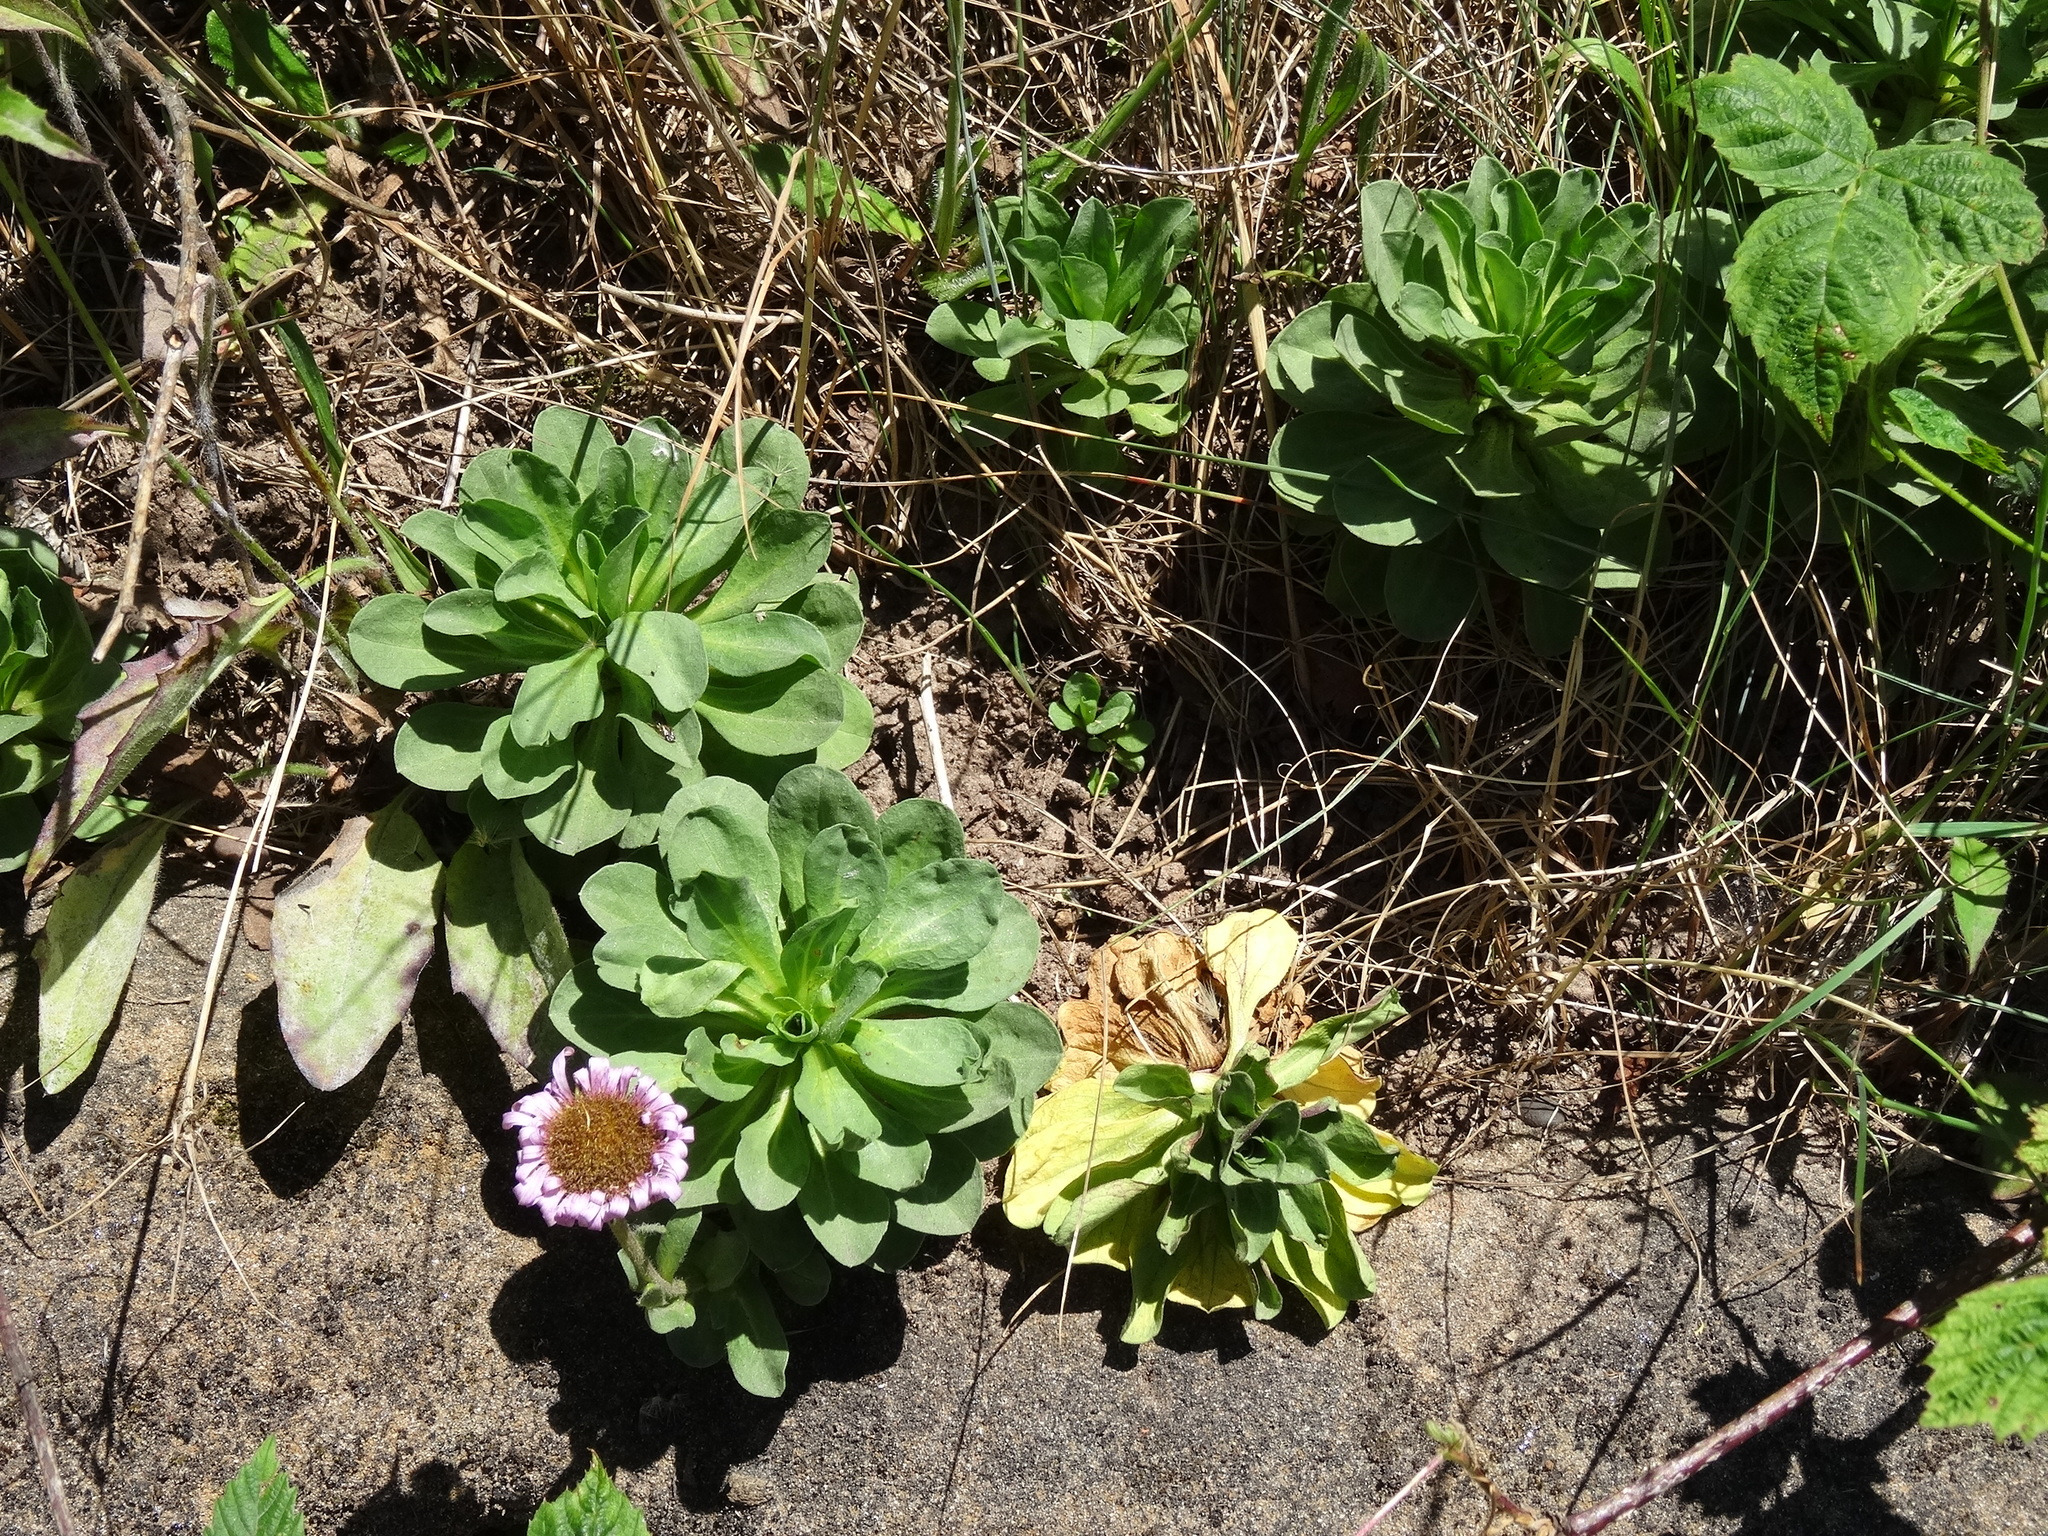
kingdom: Plantae
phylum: Tracheophyta
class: Magnoliopsida
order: Asterales
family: Asteraceae
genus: Erigeron
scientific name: Erigeron glaucus
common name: Seaside daisy
